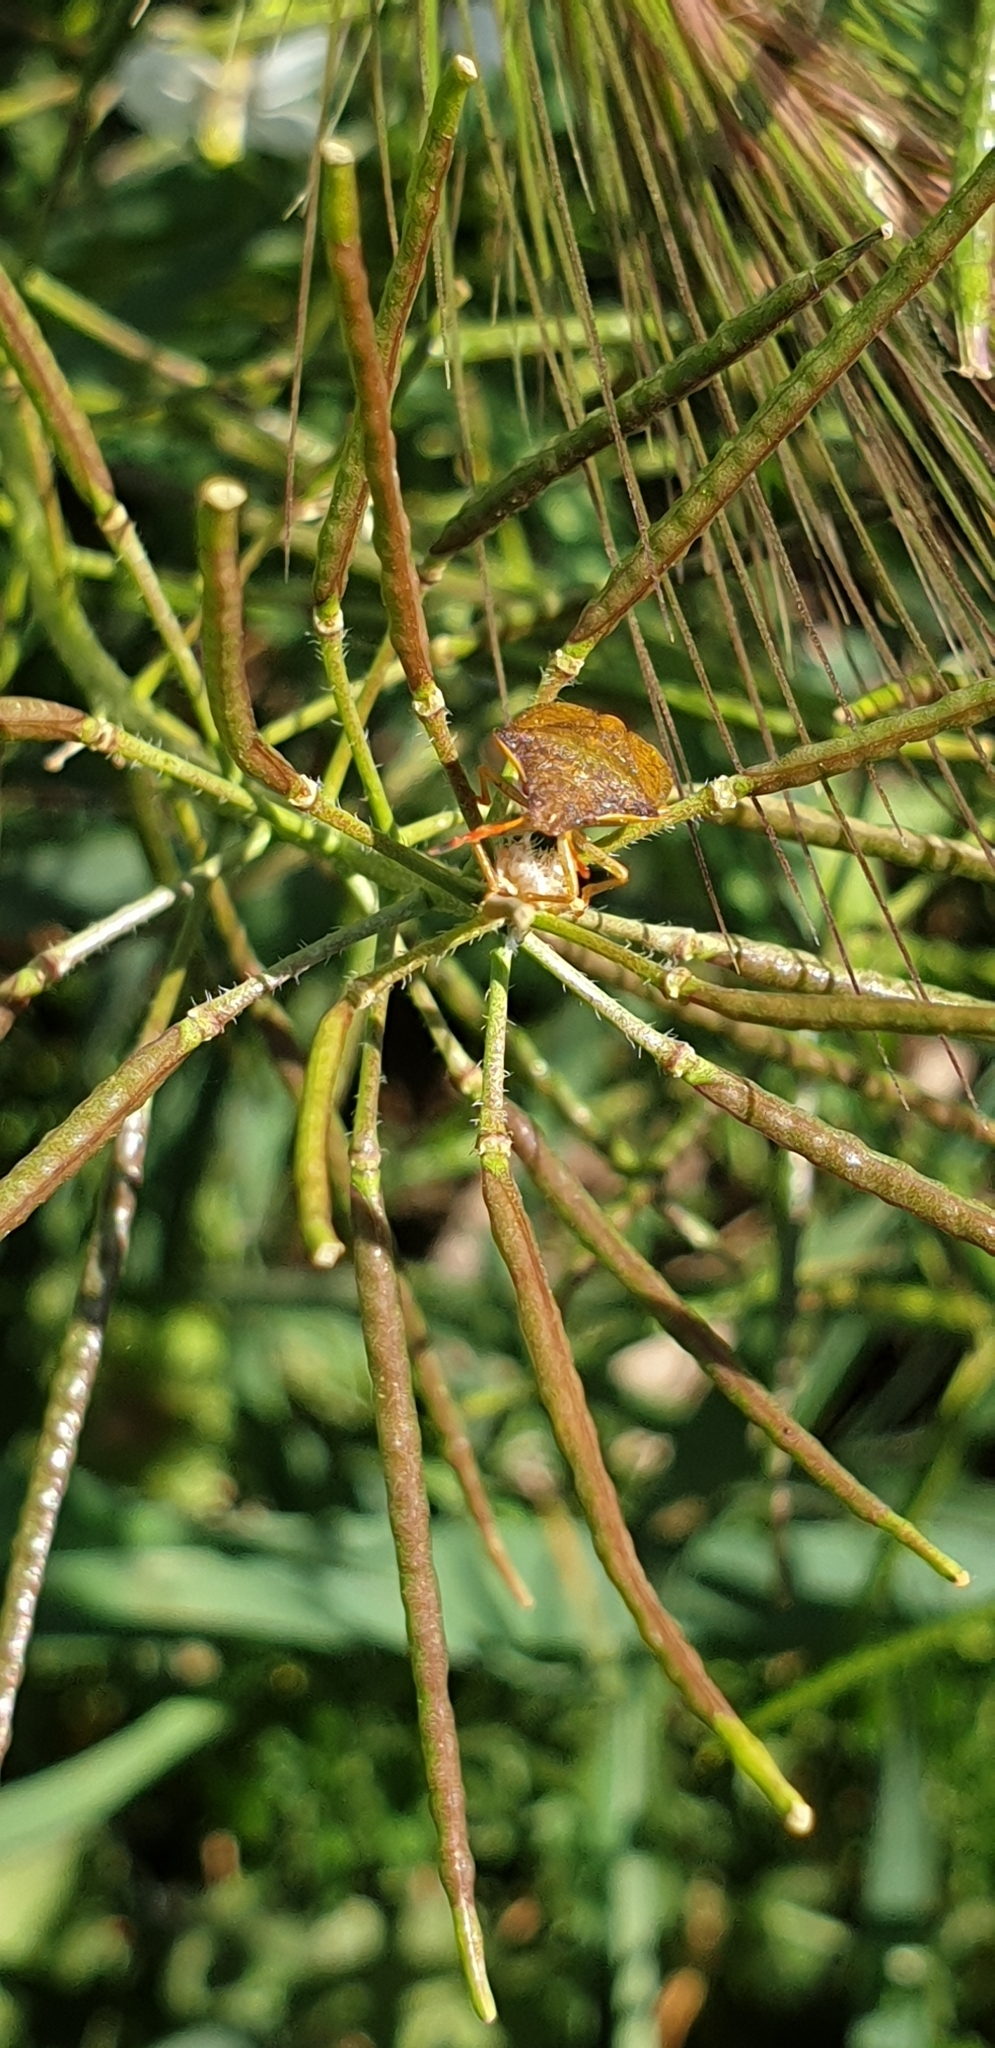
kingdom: Animalia
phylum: Arthropoda
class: Insecta
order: Hemiptera
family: Pentatomidae
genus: Holcostethus
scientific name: Holcostethus strictus
